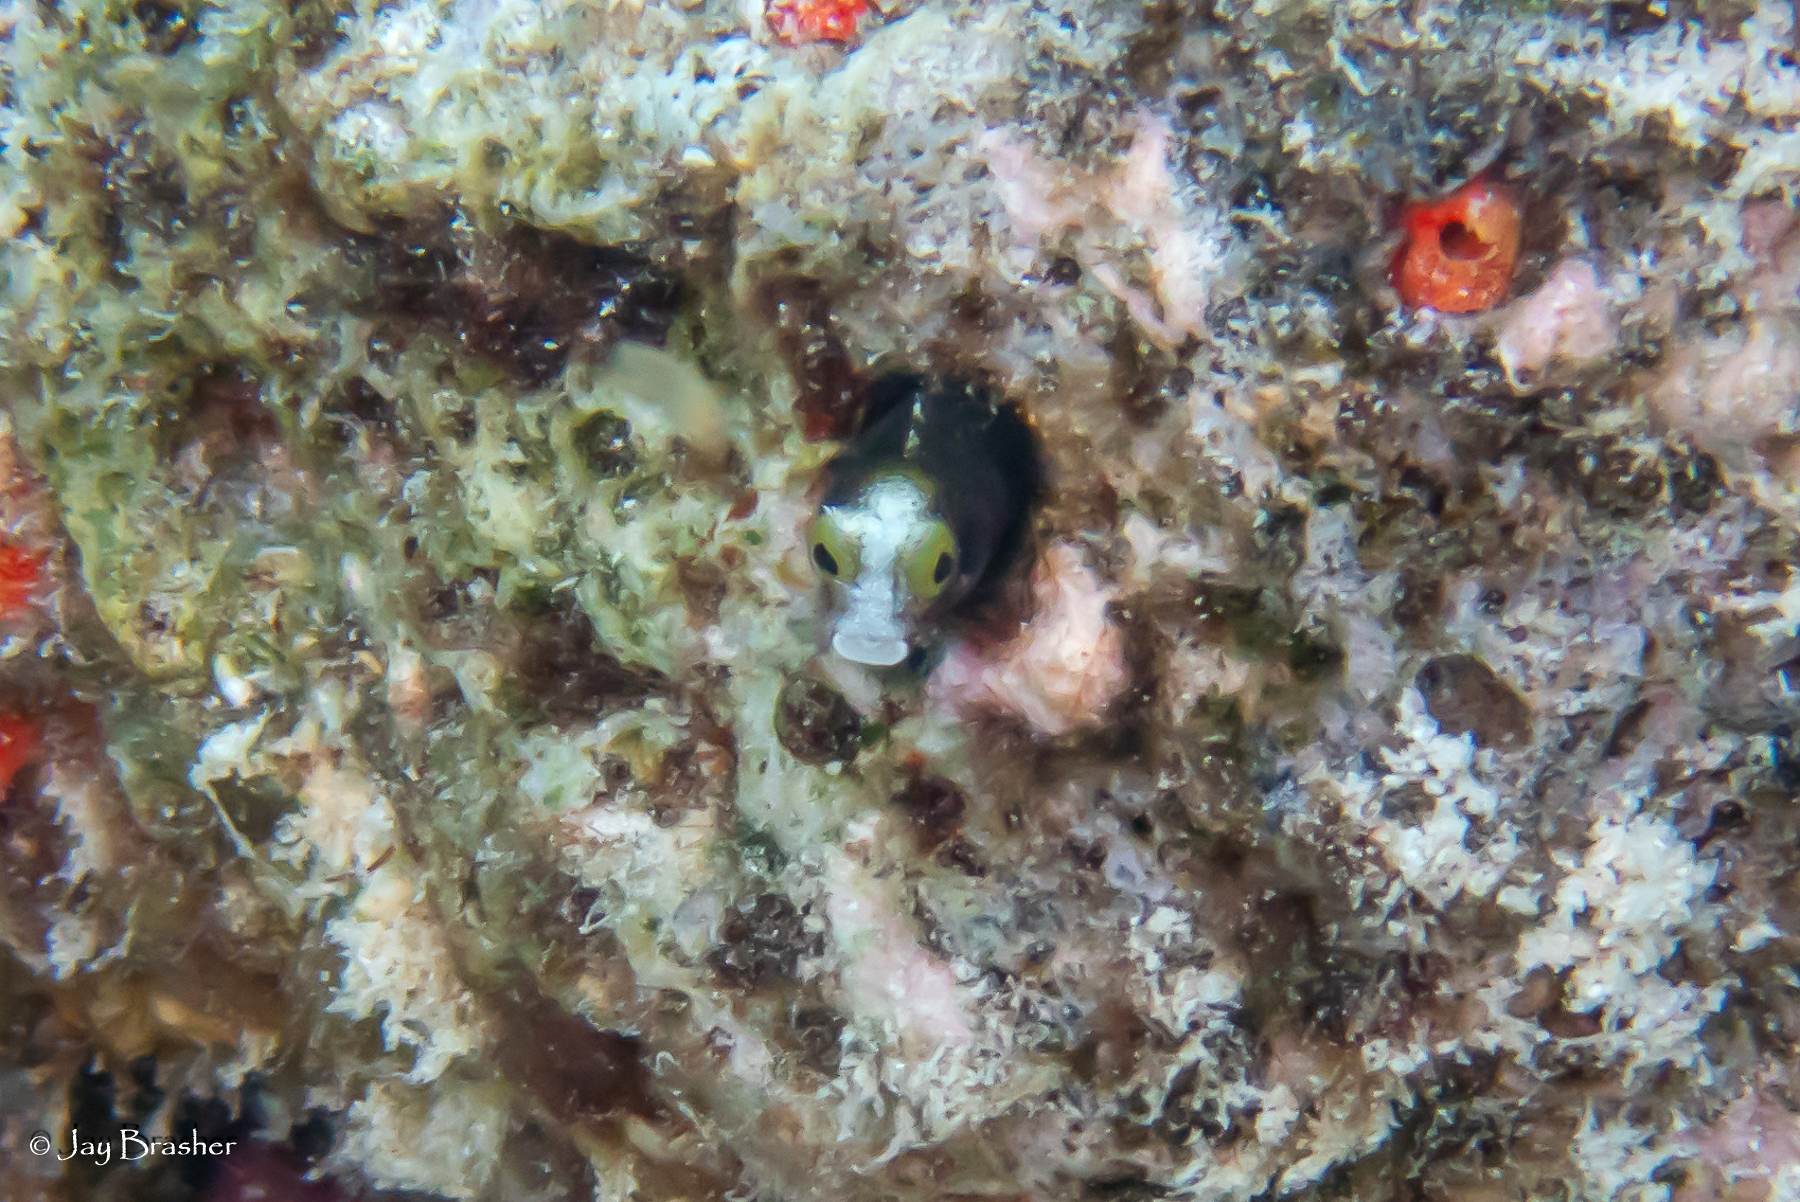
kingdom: Animalia
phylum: Chordata
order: Perciformes
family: Chaenopsidae
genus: Acanthemblemaria
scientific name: Acanthemblemaria spinosa
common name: Spinyhead blenny
